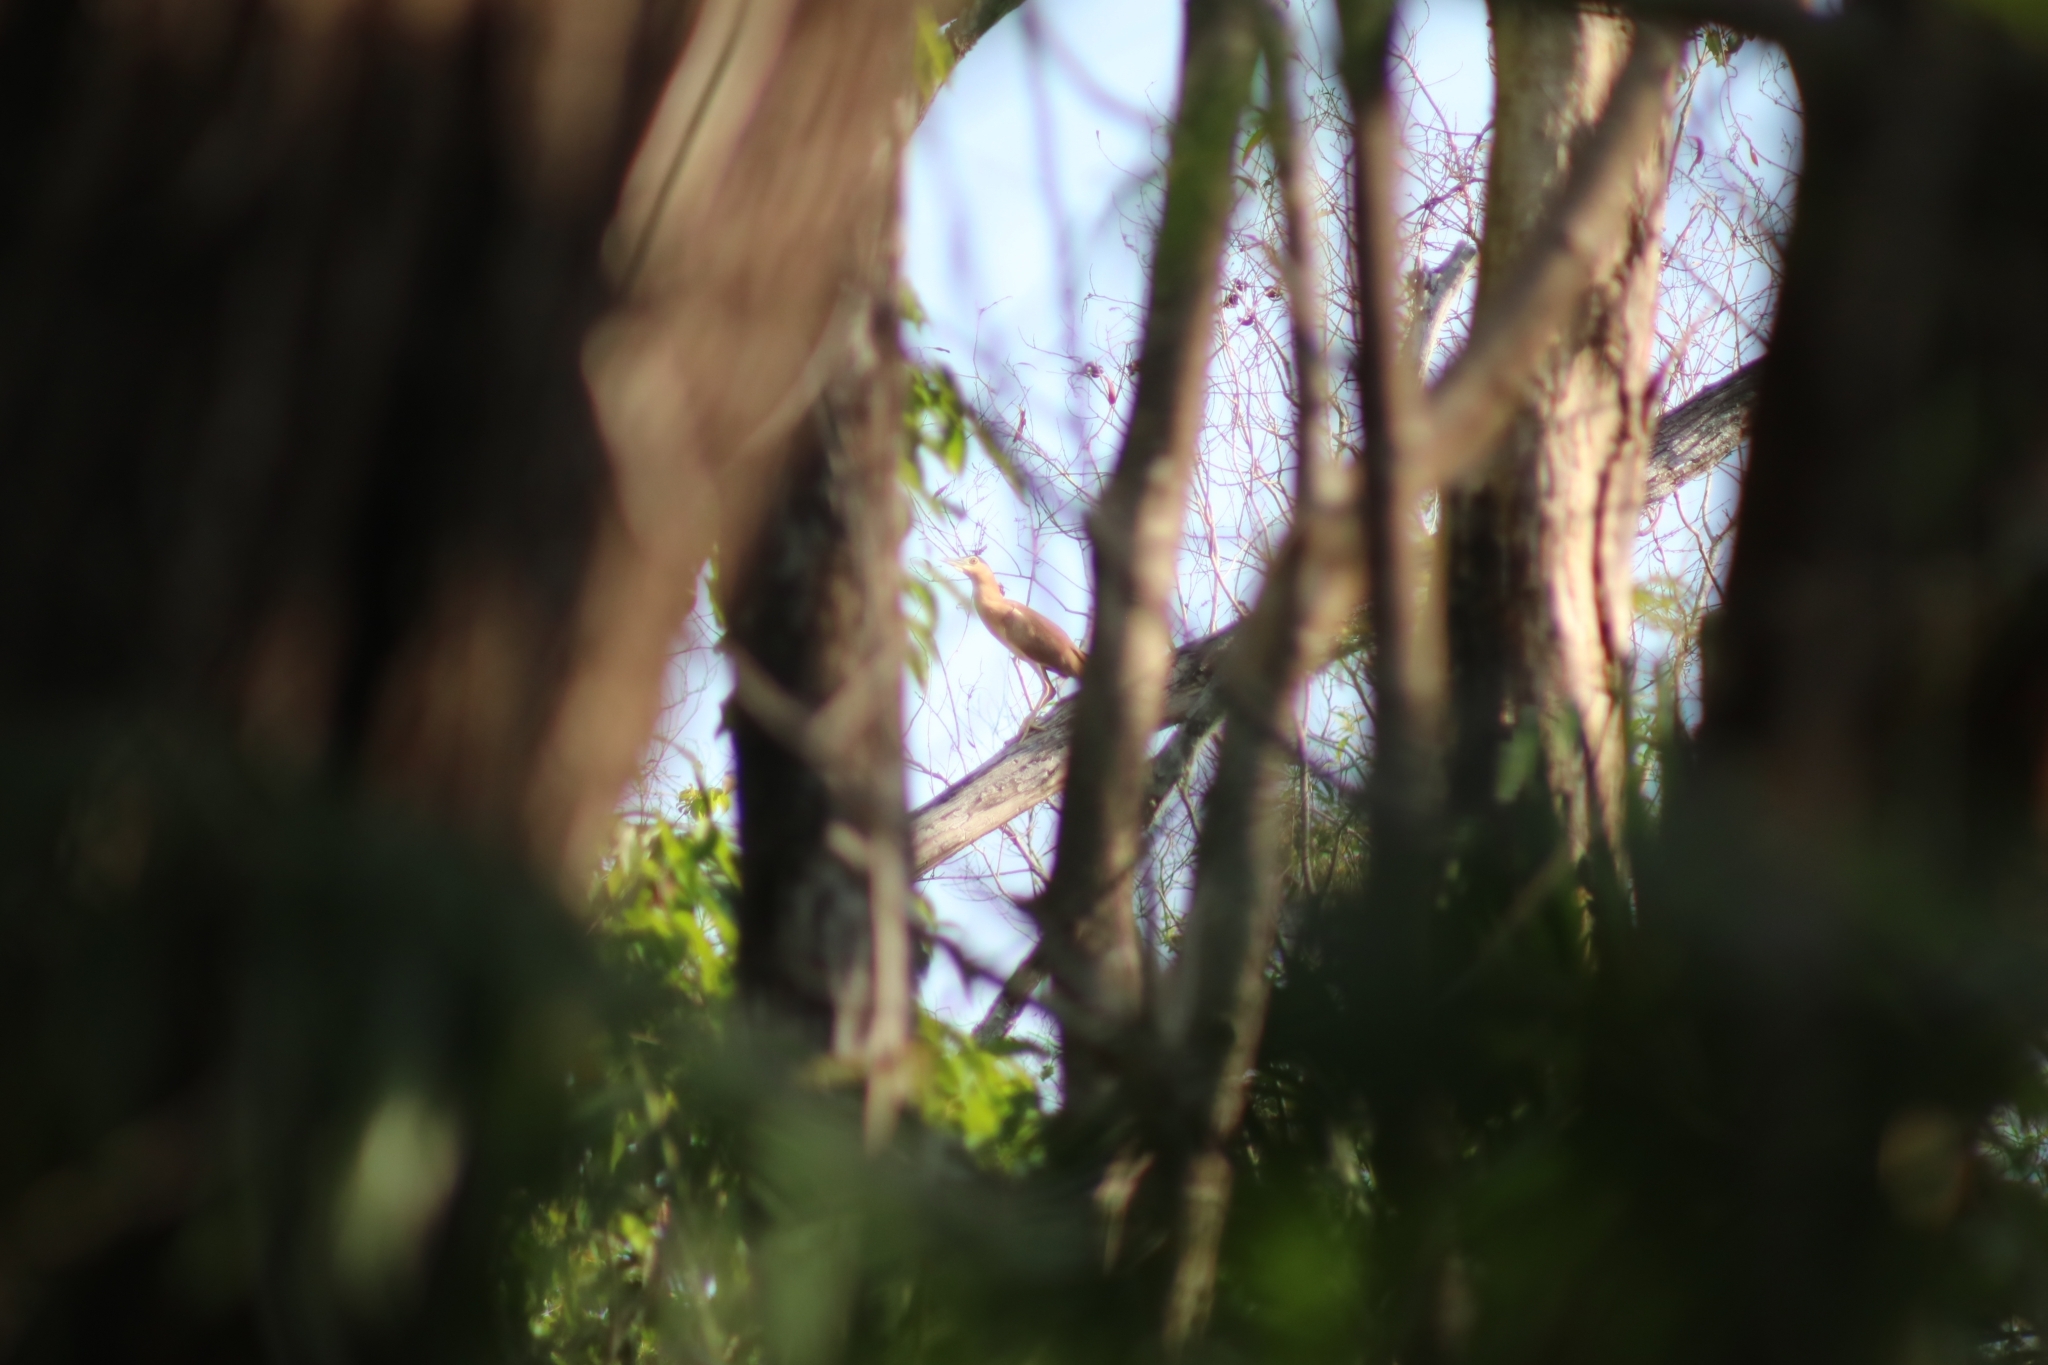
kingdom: Animalia
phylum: Chordata
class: Aves
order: Pelecaniformes
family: Ardeidae
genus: Nycticorax
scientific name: Nycticorax caledonicus
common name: Rufous night-heron
